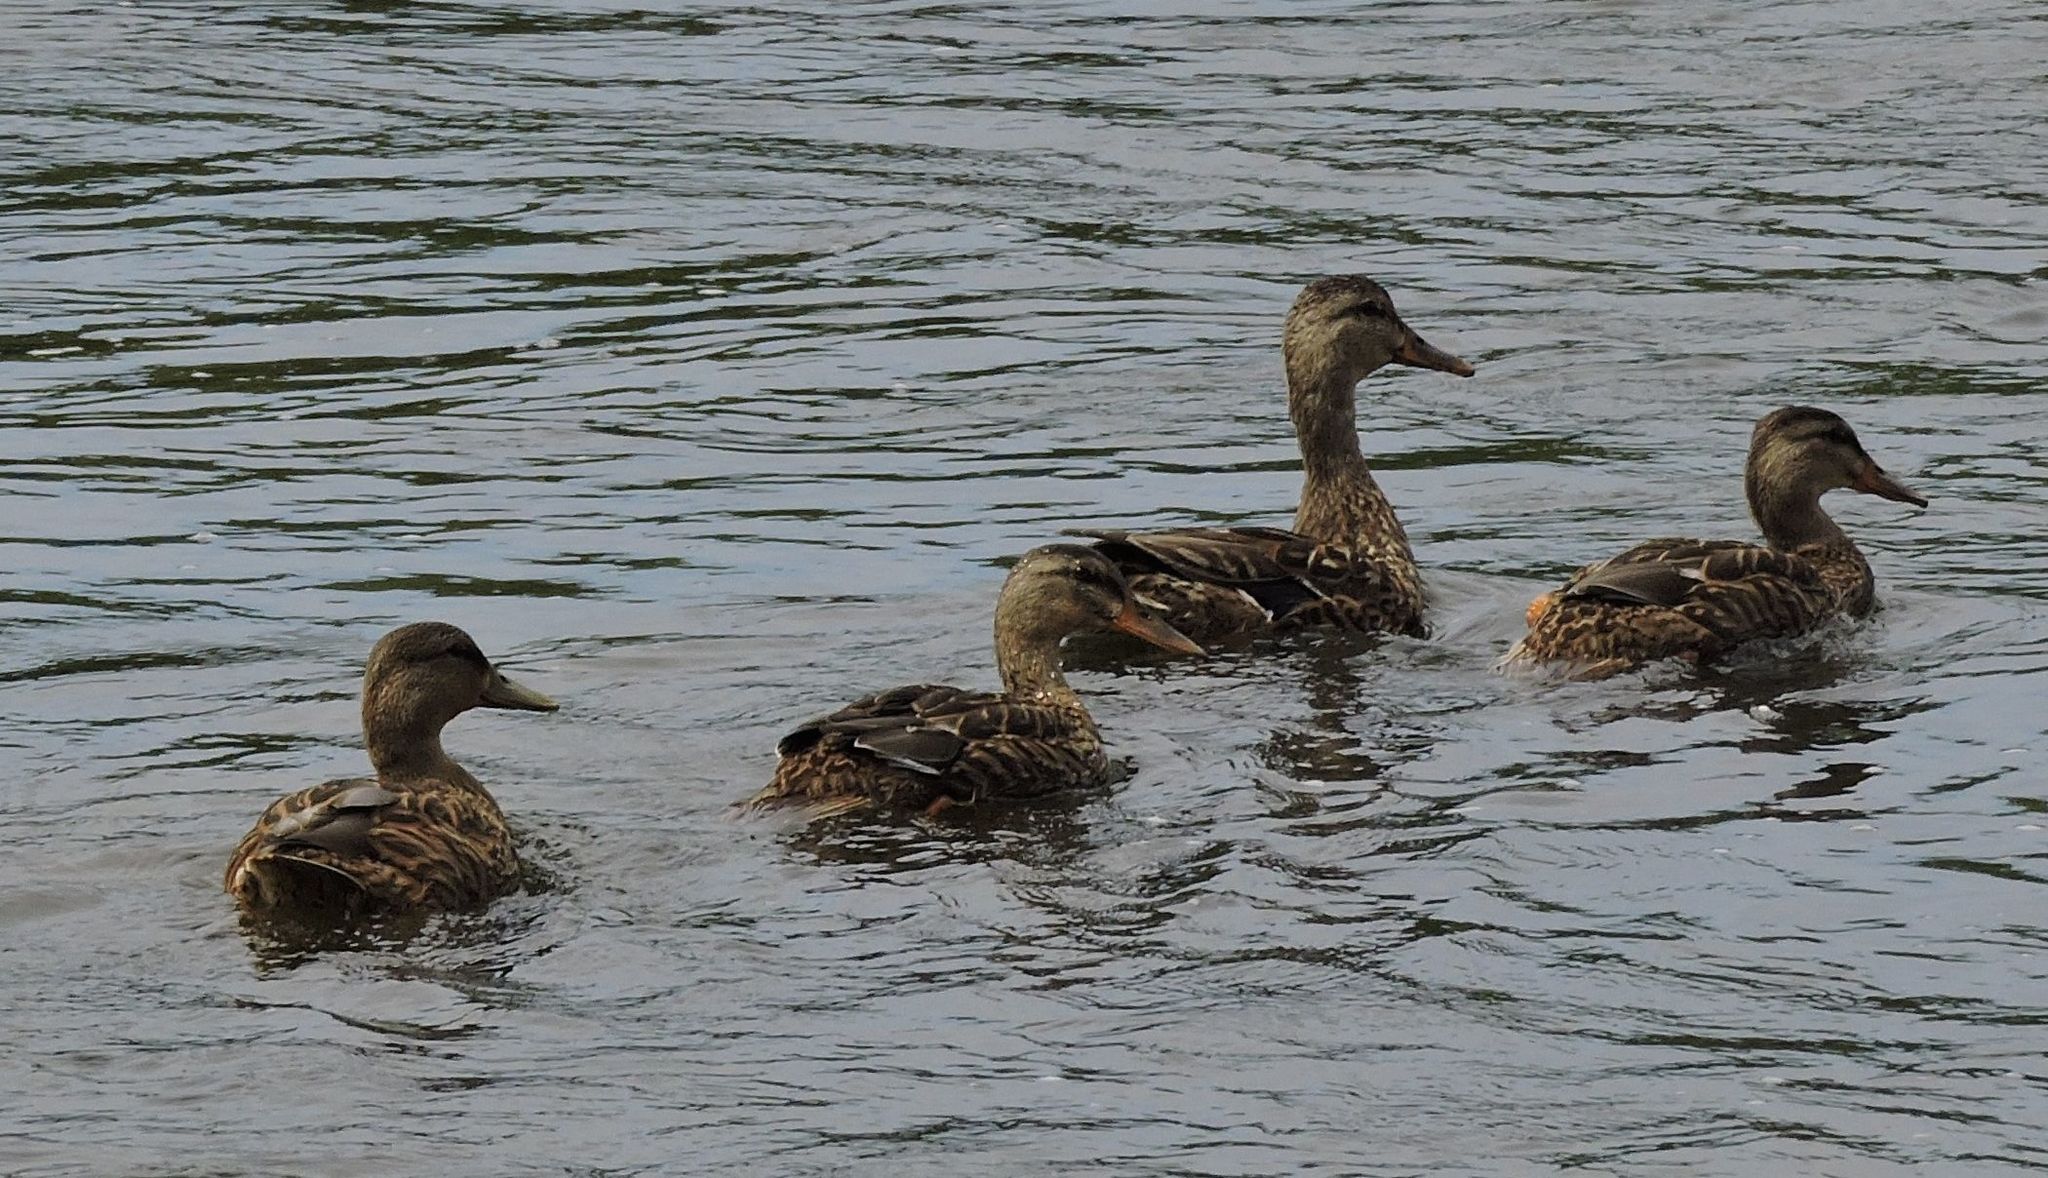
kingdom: Animalia
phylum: Chordata
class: Aves
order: Anseriformes
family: Anatidae
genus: Anas
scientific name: Anas platyrhynchos
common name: Mallard
